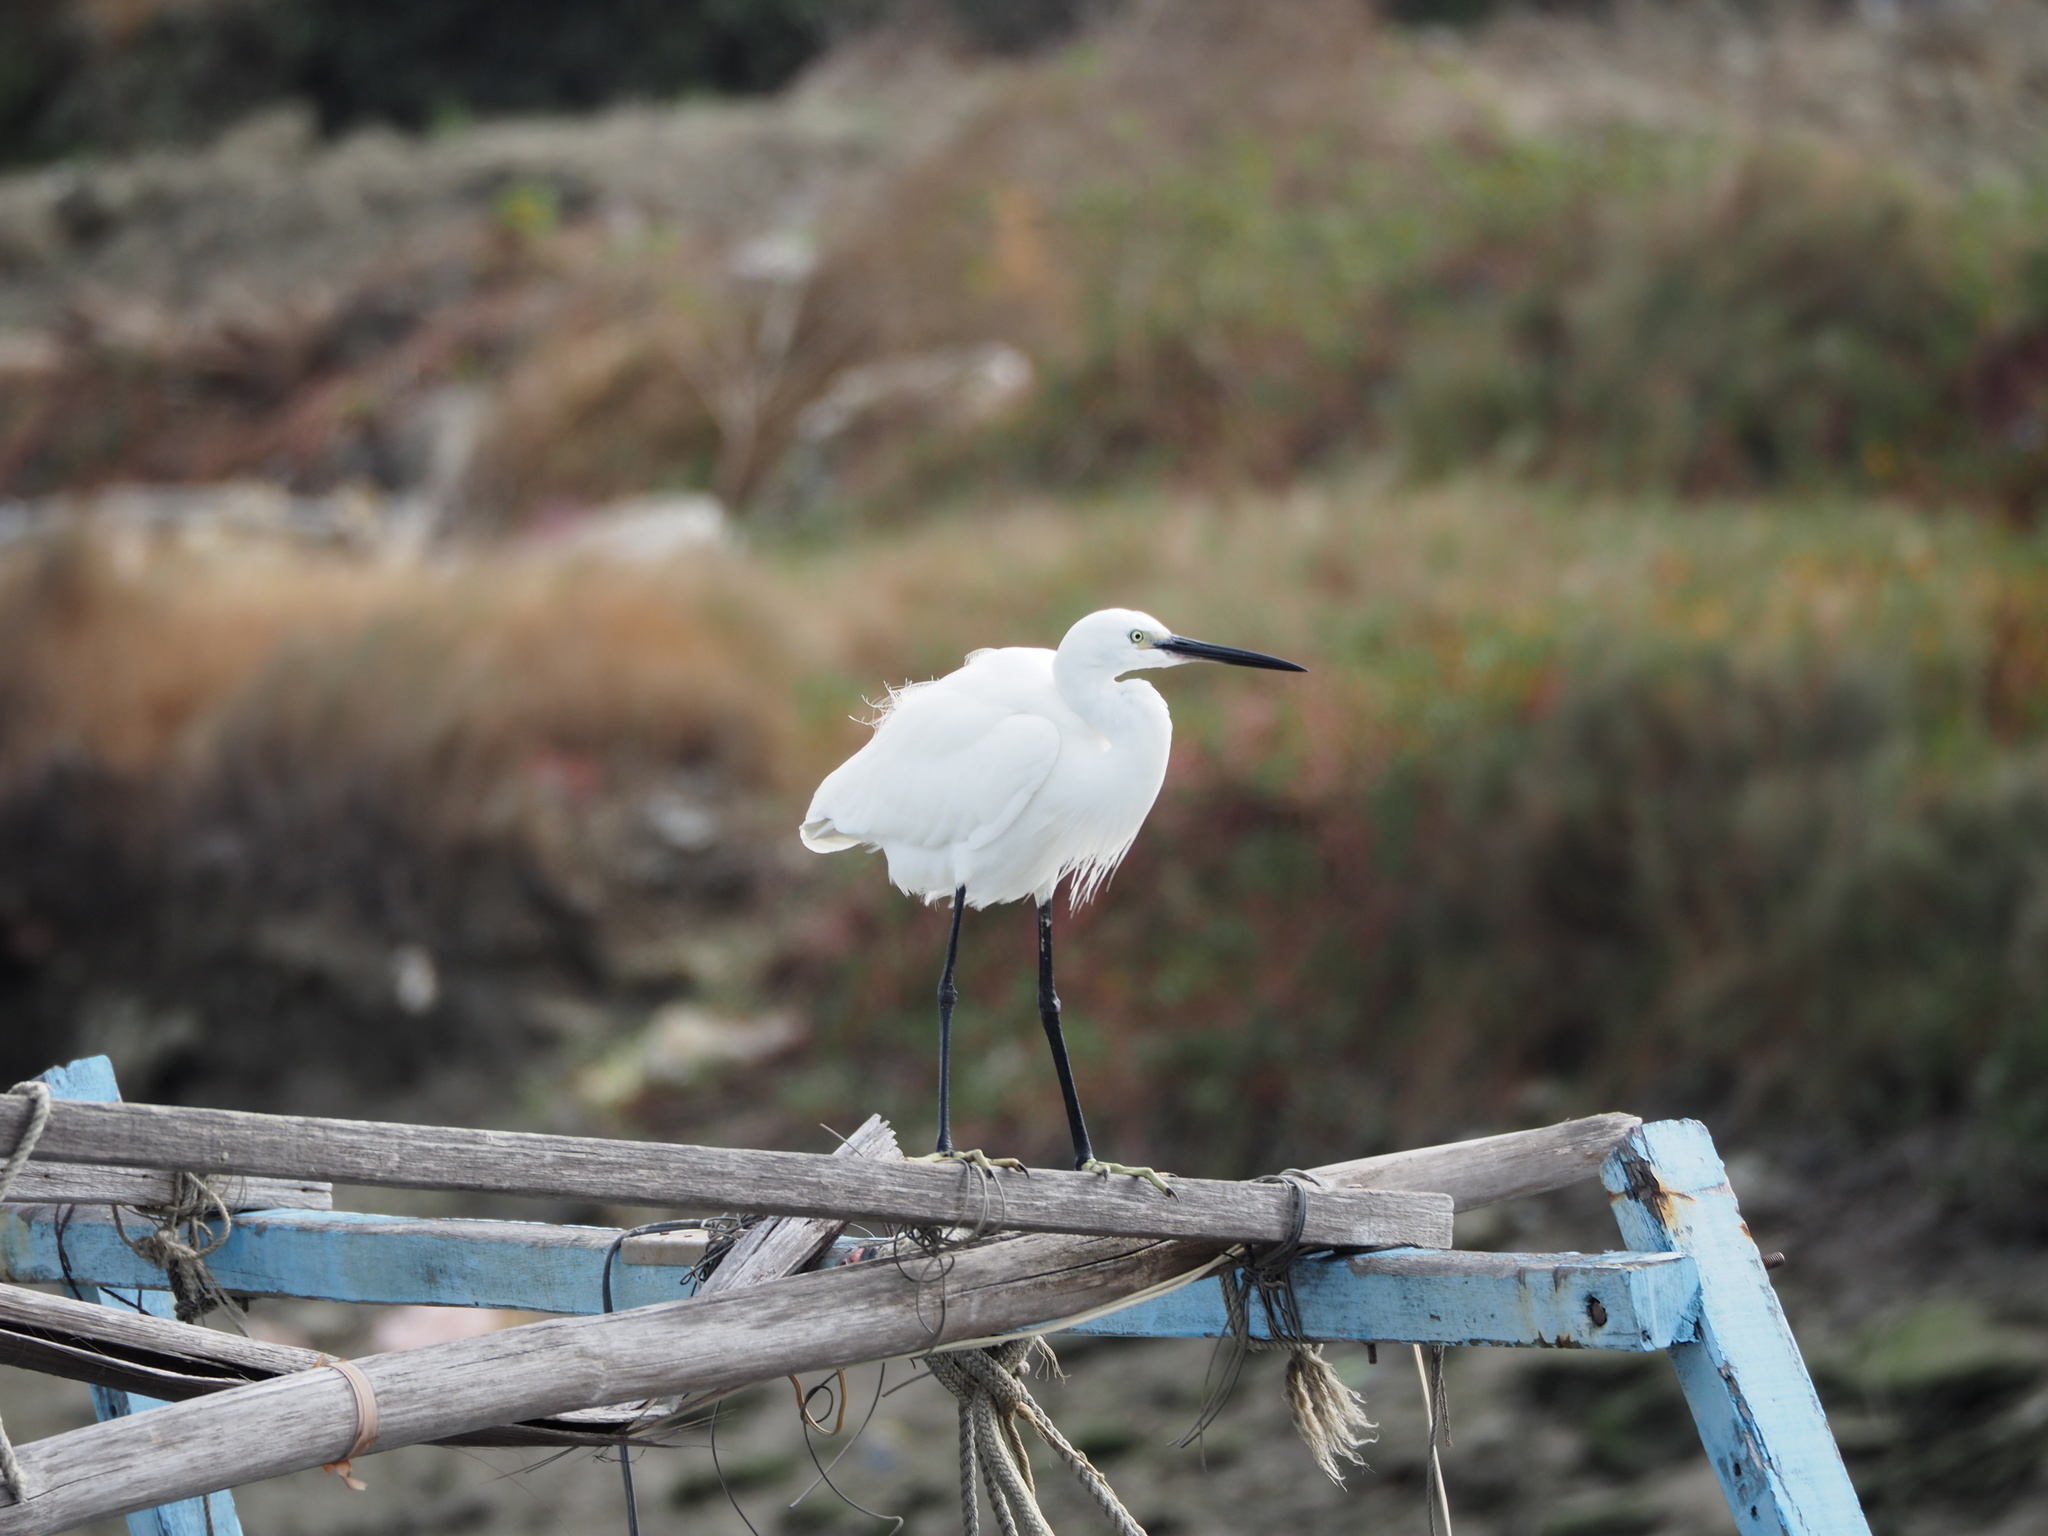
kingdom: Animalia
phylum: Chordata
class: Aves
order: Pelecaniformes
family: Ardeidae
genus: Egretta
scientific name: Egretta garzetta
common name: Little egret
